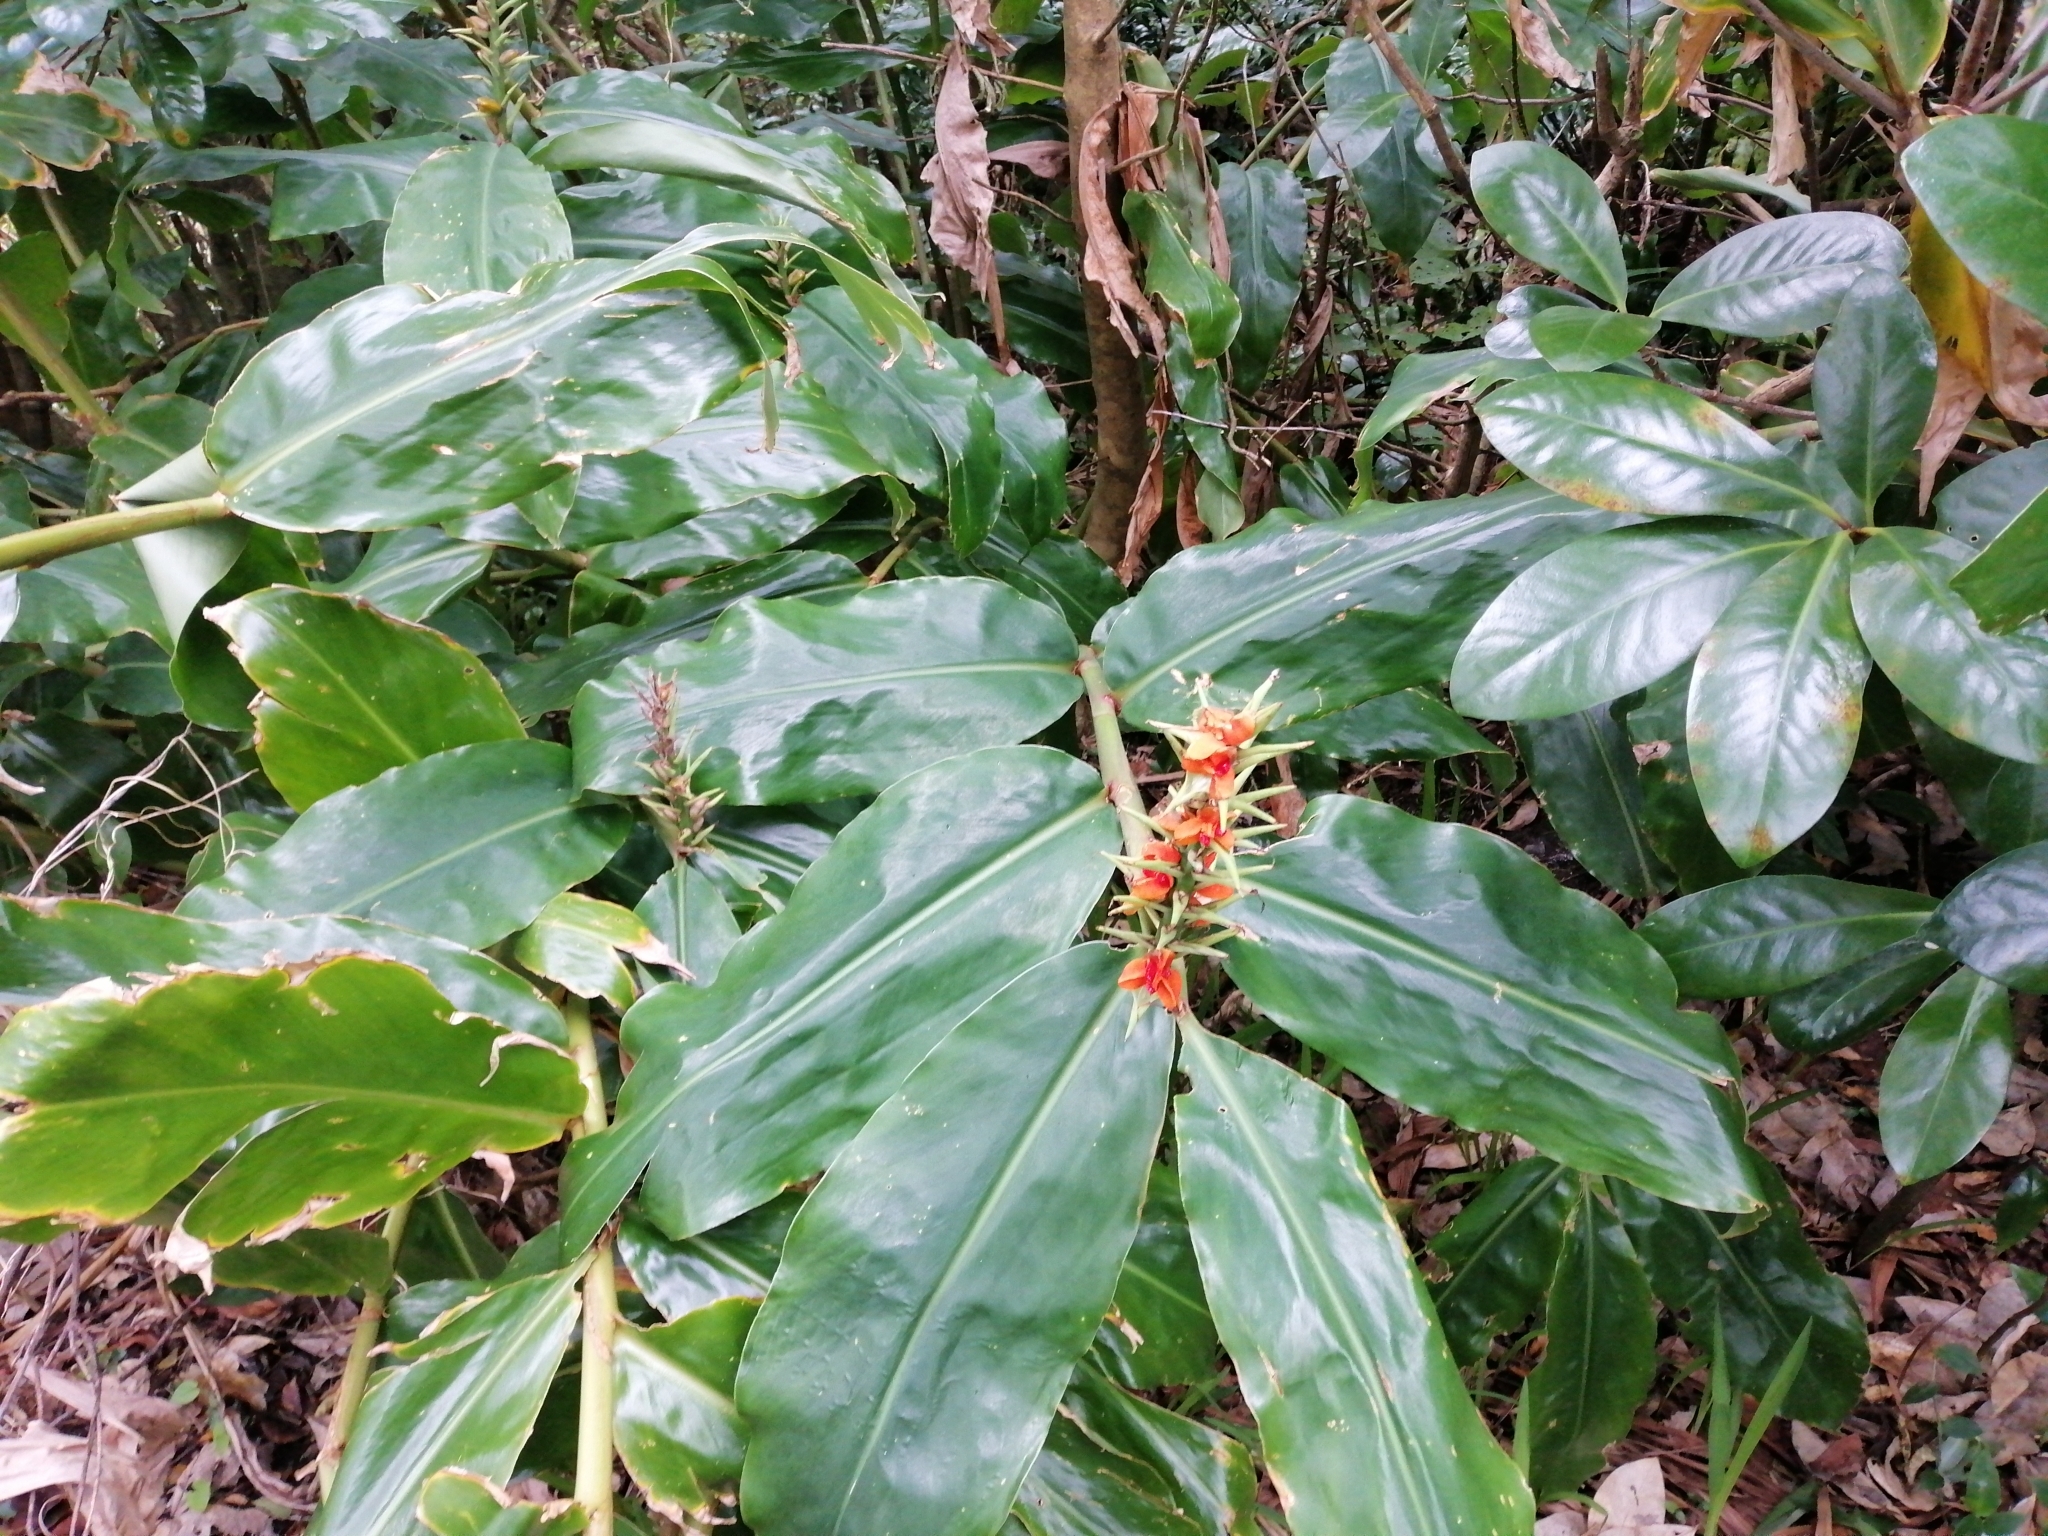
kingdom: Plantae
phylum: Tracheophyta
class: Liliopsida
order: Zingiberales
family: Zingiberaceae
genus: Hedychium
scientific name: Hedychium gardnerianum
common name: Himalayan ginger
